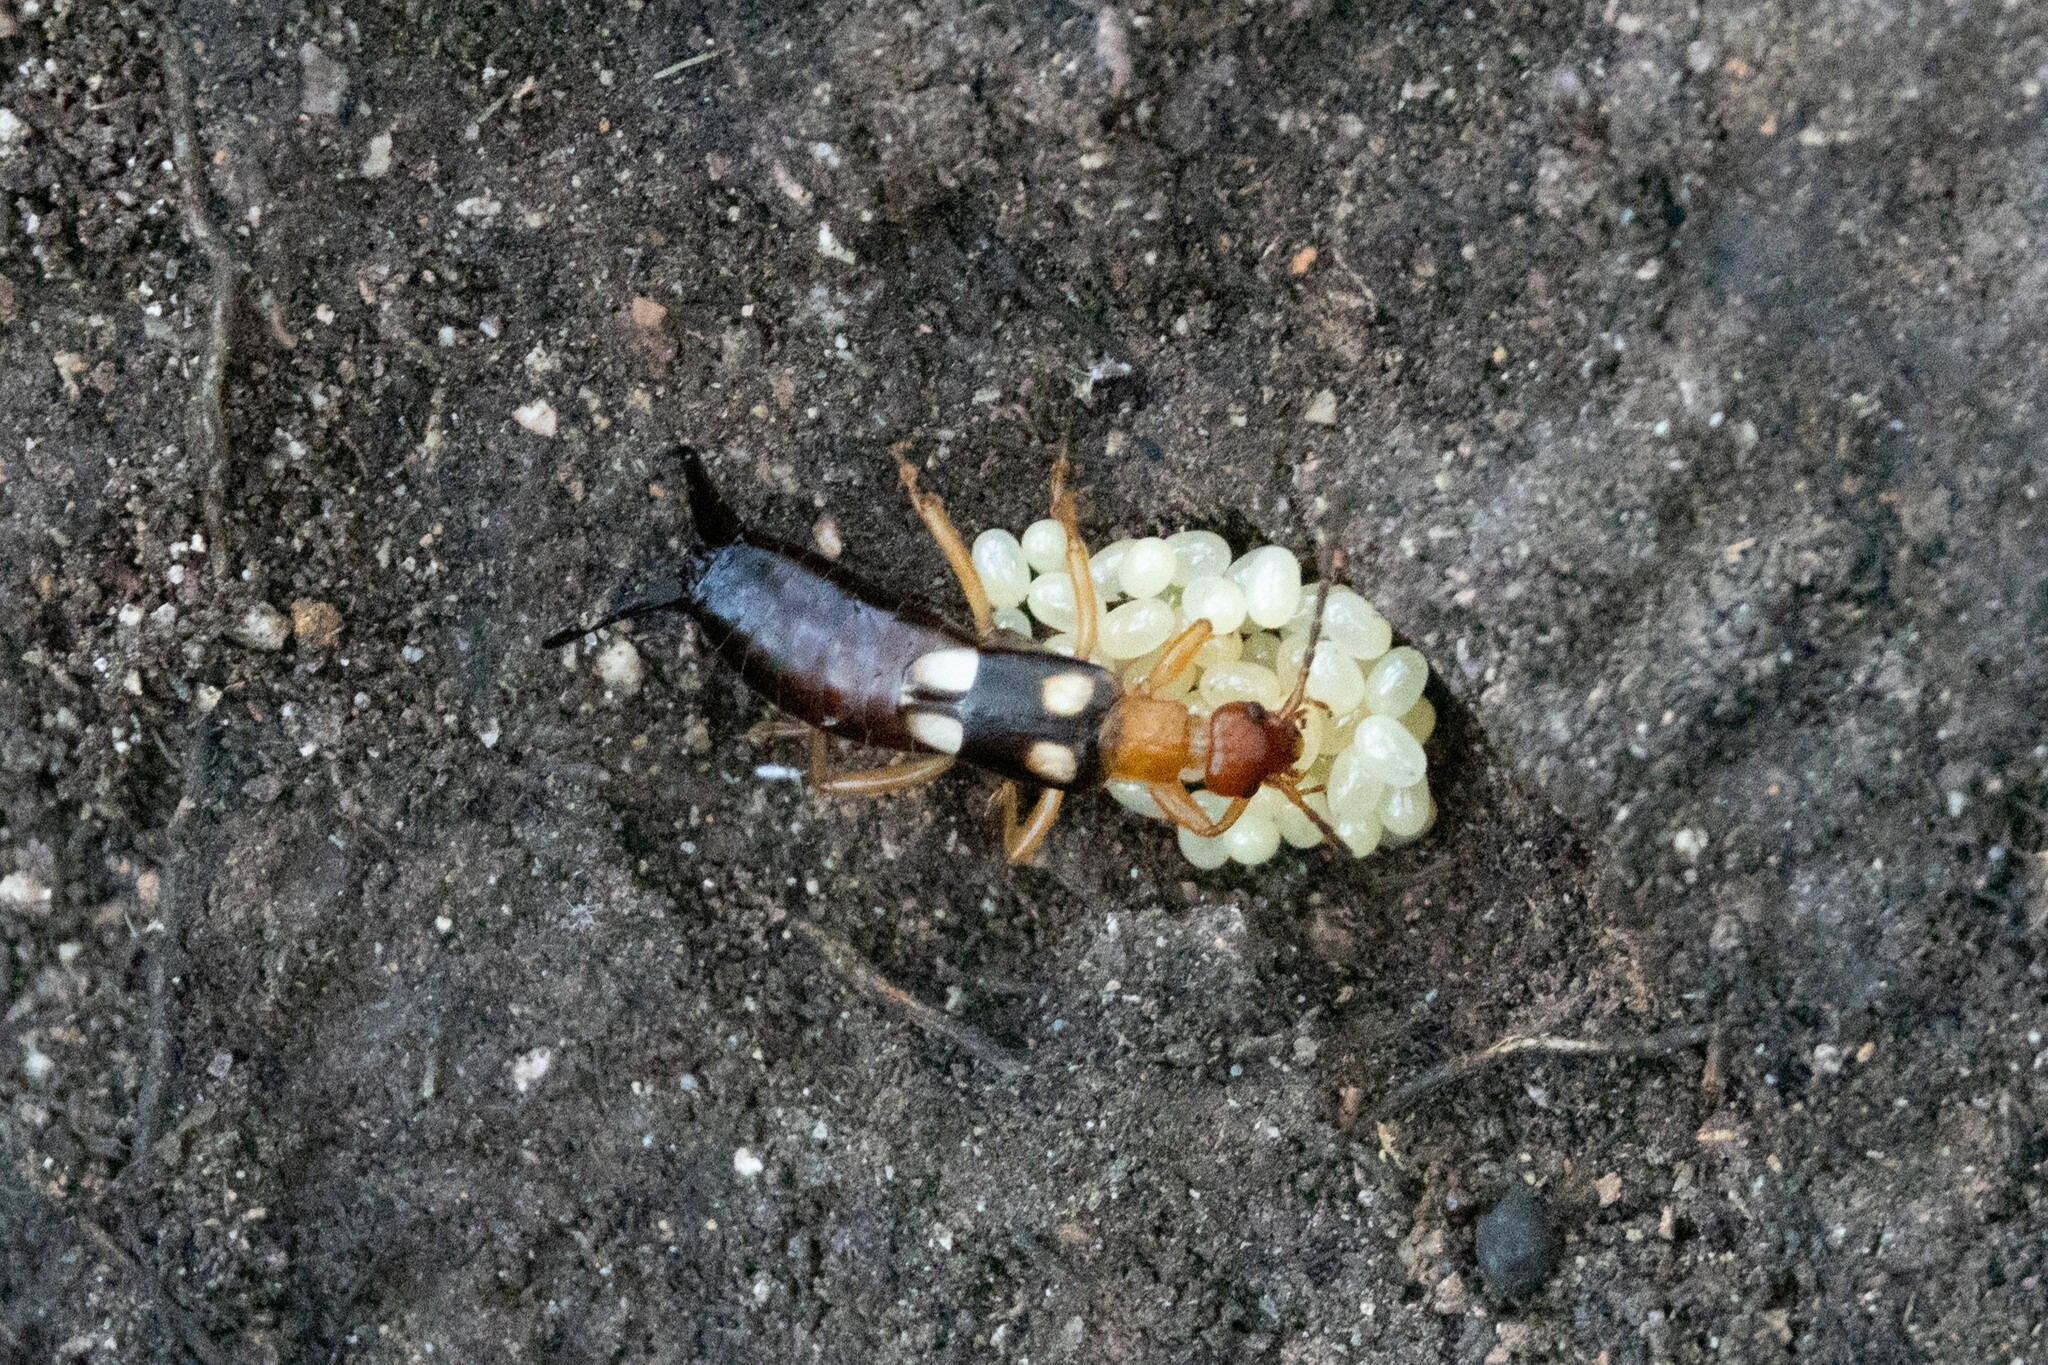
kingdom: Animalia
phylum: Arthropoda
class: Insecta
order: Dermaptera
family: Forficulidae
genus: Forficula
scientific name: Forficula smyrnensis
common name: Smyrna earwig
